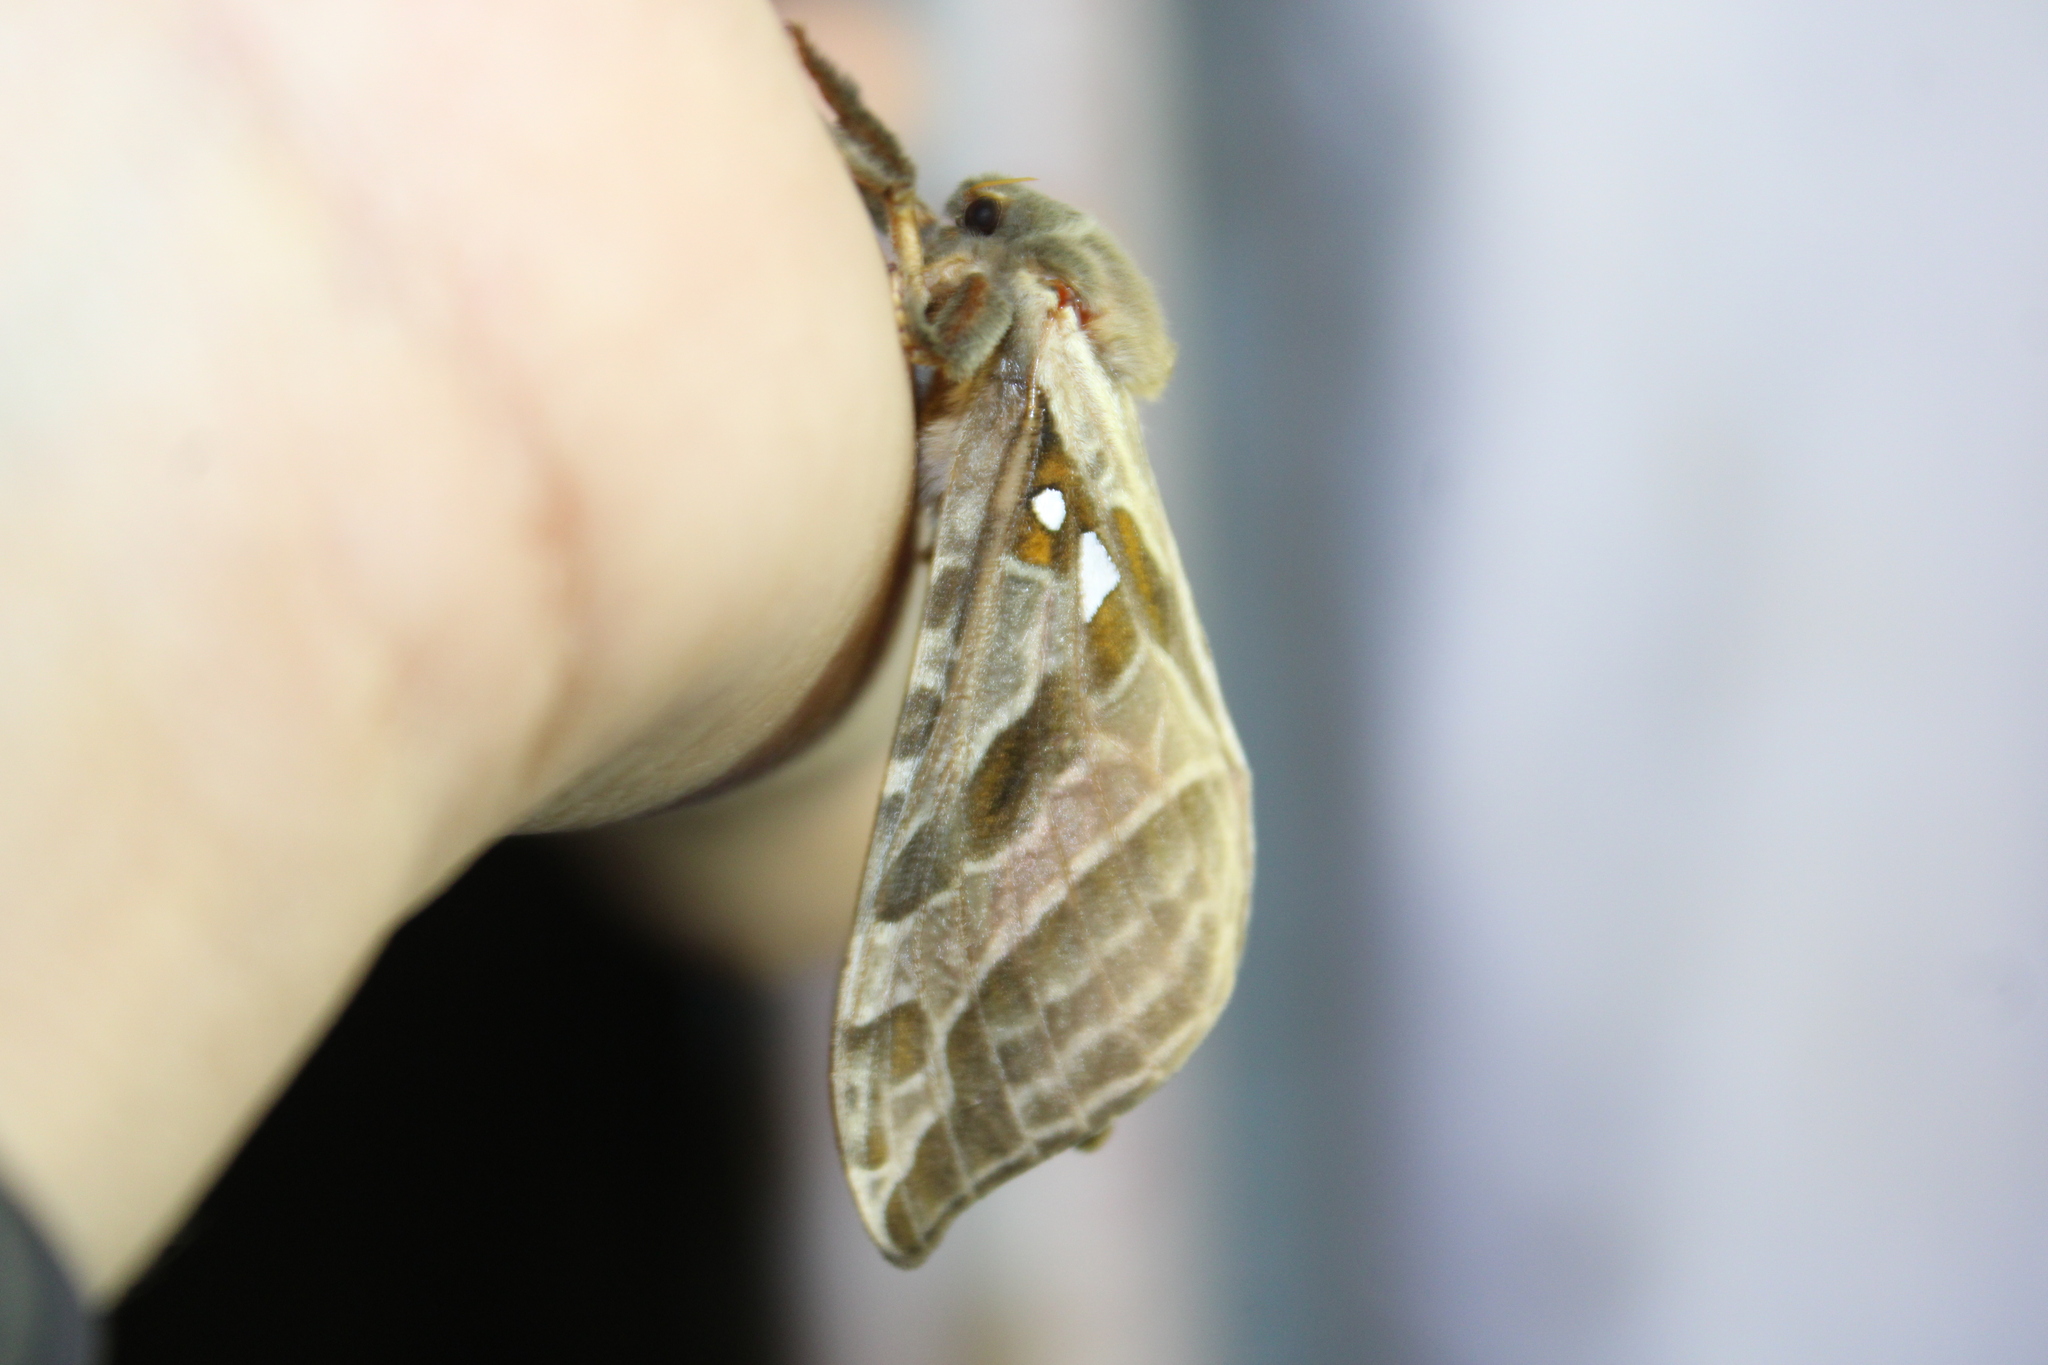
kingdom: Animalia
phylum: Arthropoda
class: Insecta
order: Lepidoptera
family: Hepialidae
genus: Sthenopis
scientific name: Sthenopis argenteomaculatus
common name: Silver-spotted ghost moth
